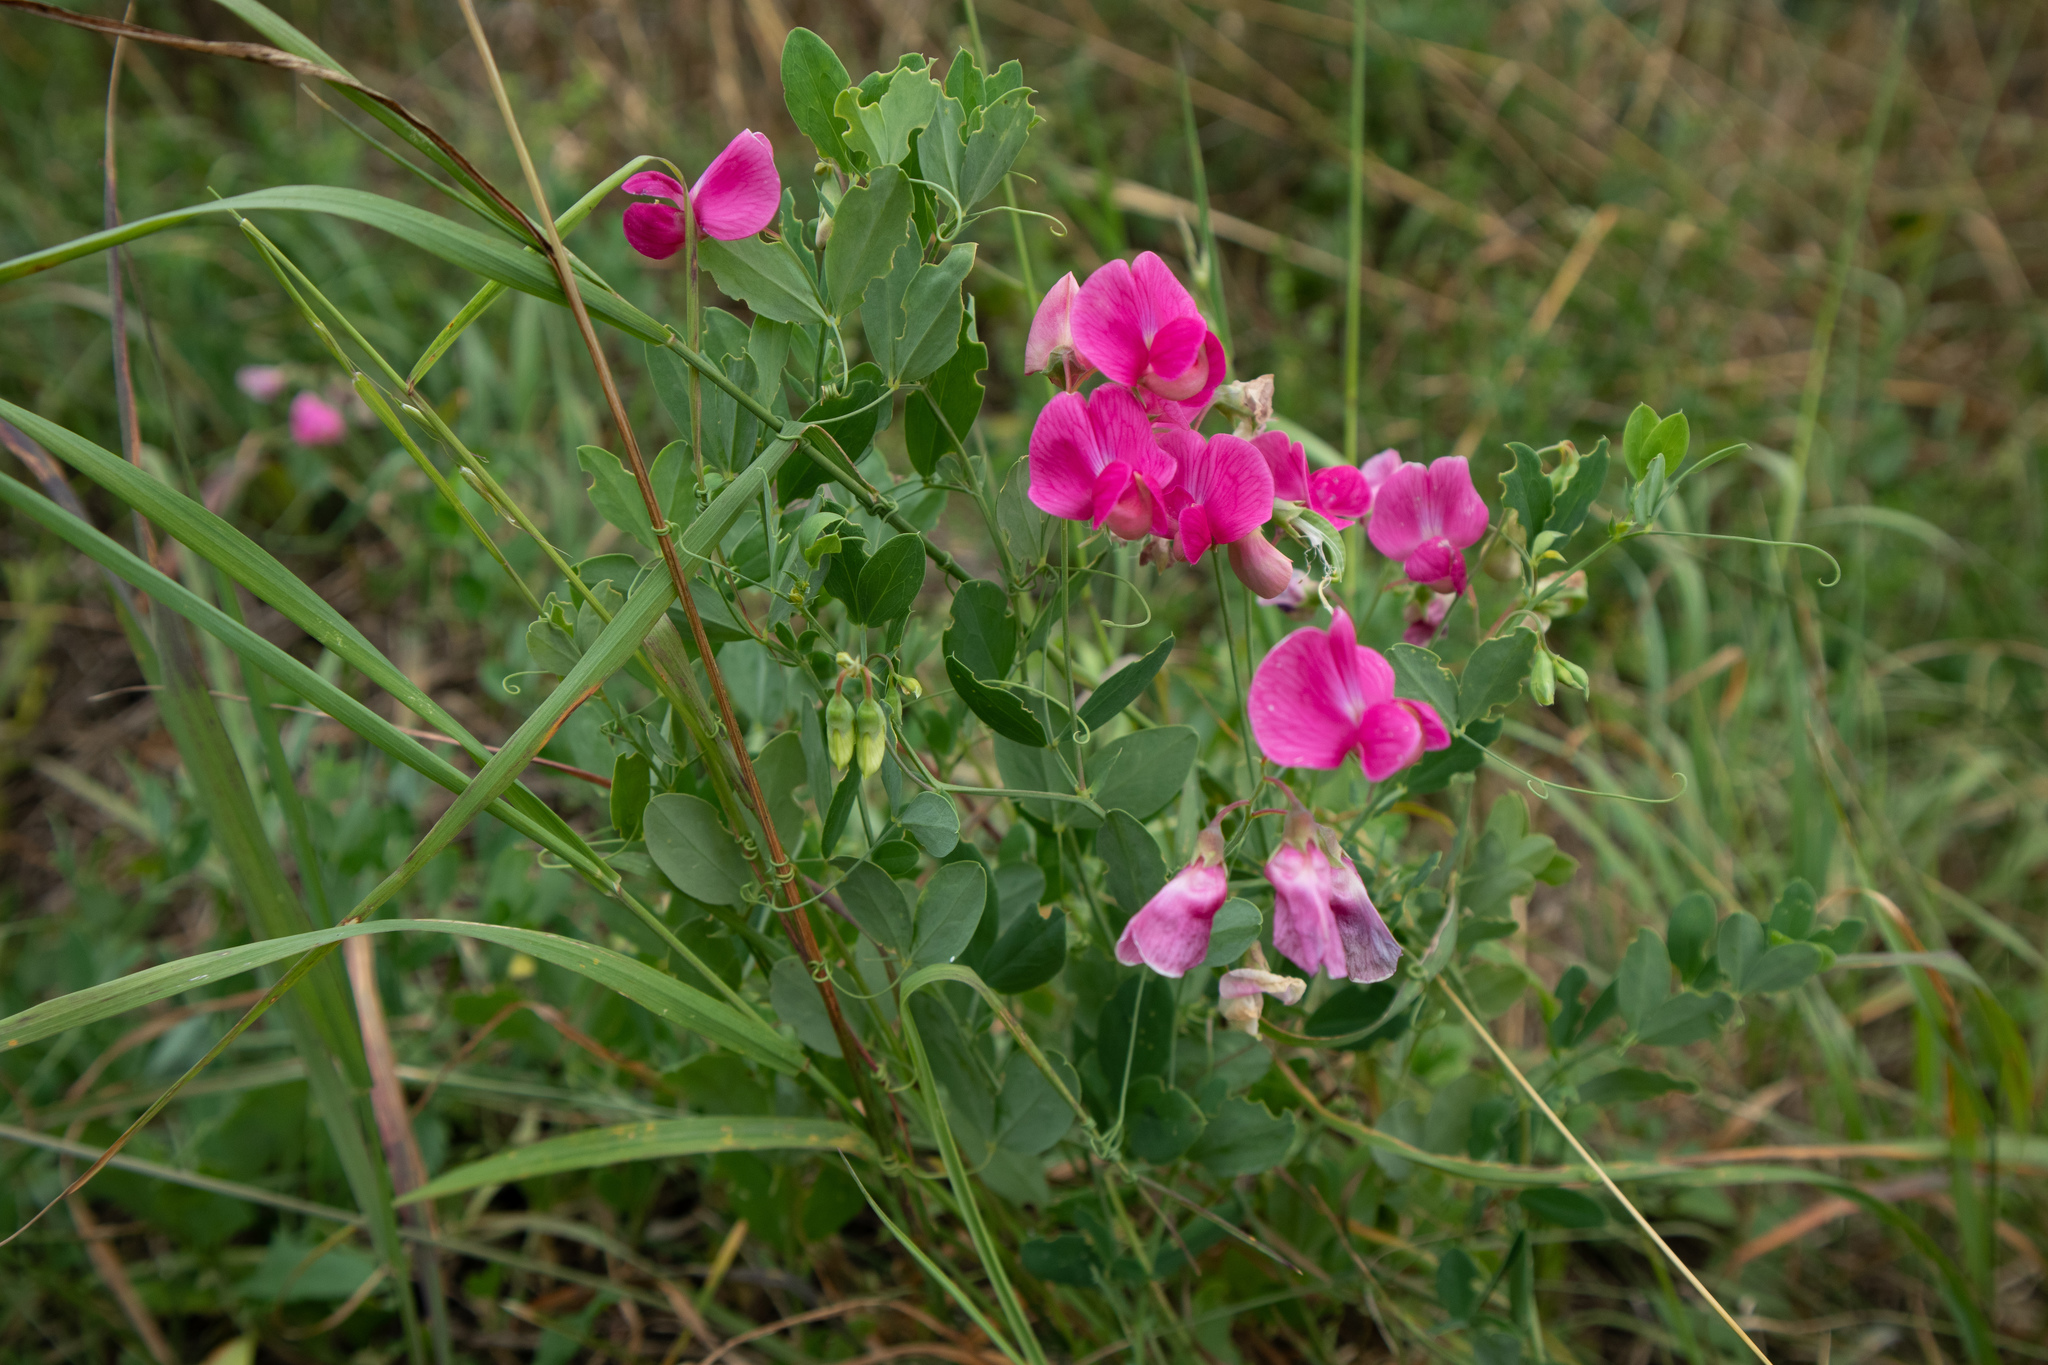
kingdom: Plantae
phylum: Tracheophyta
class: Magnoliopsida
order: Fabales
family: Fabaceae
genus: Lathyrus
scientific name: Lathyrus tuberosus
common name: Tuberous pea
